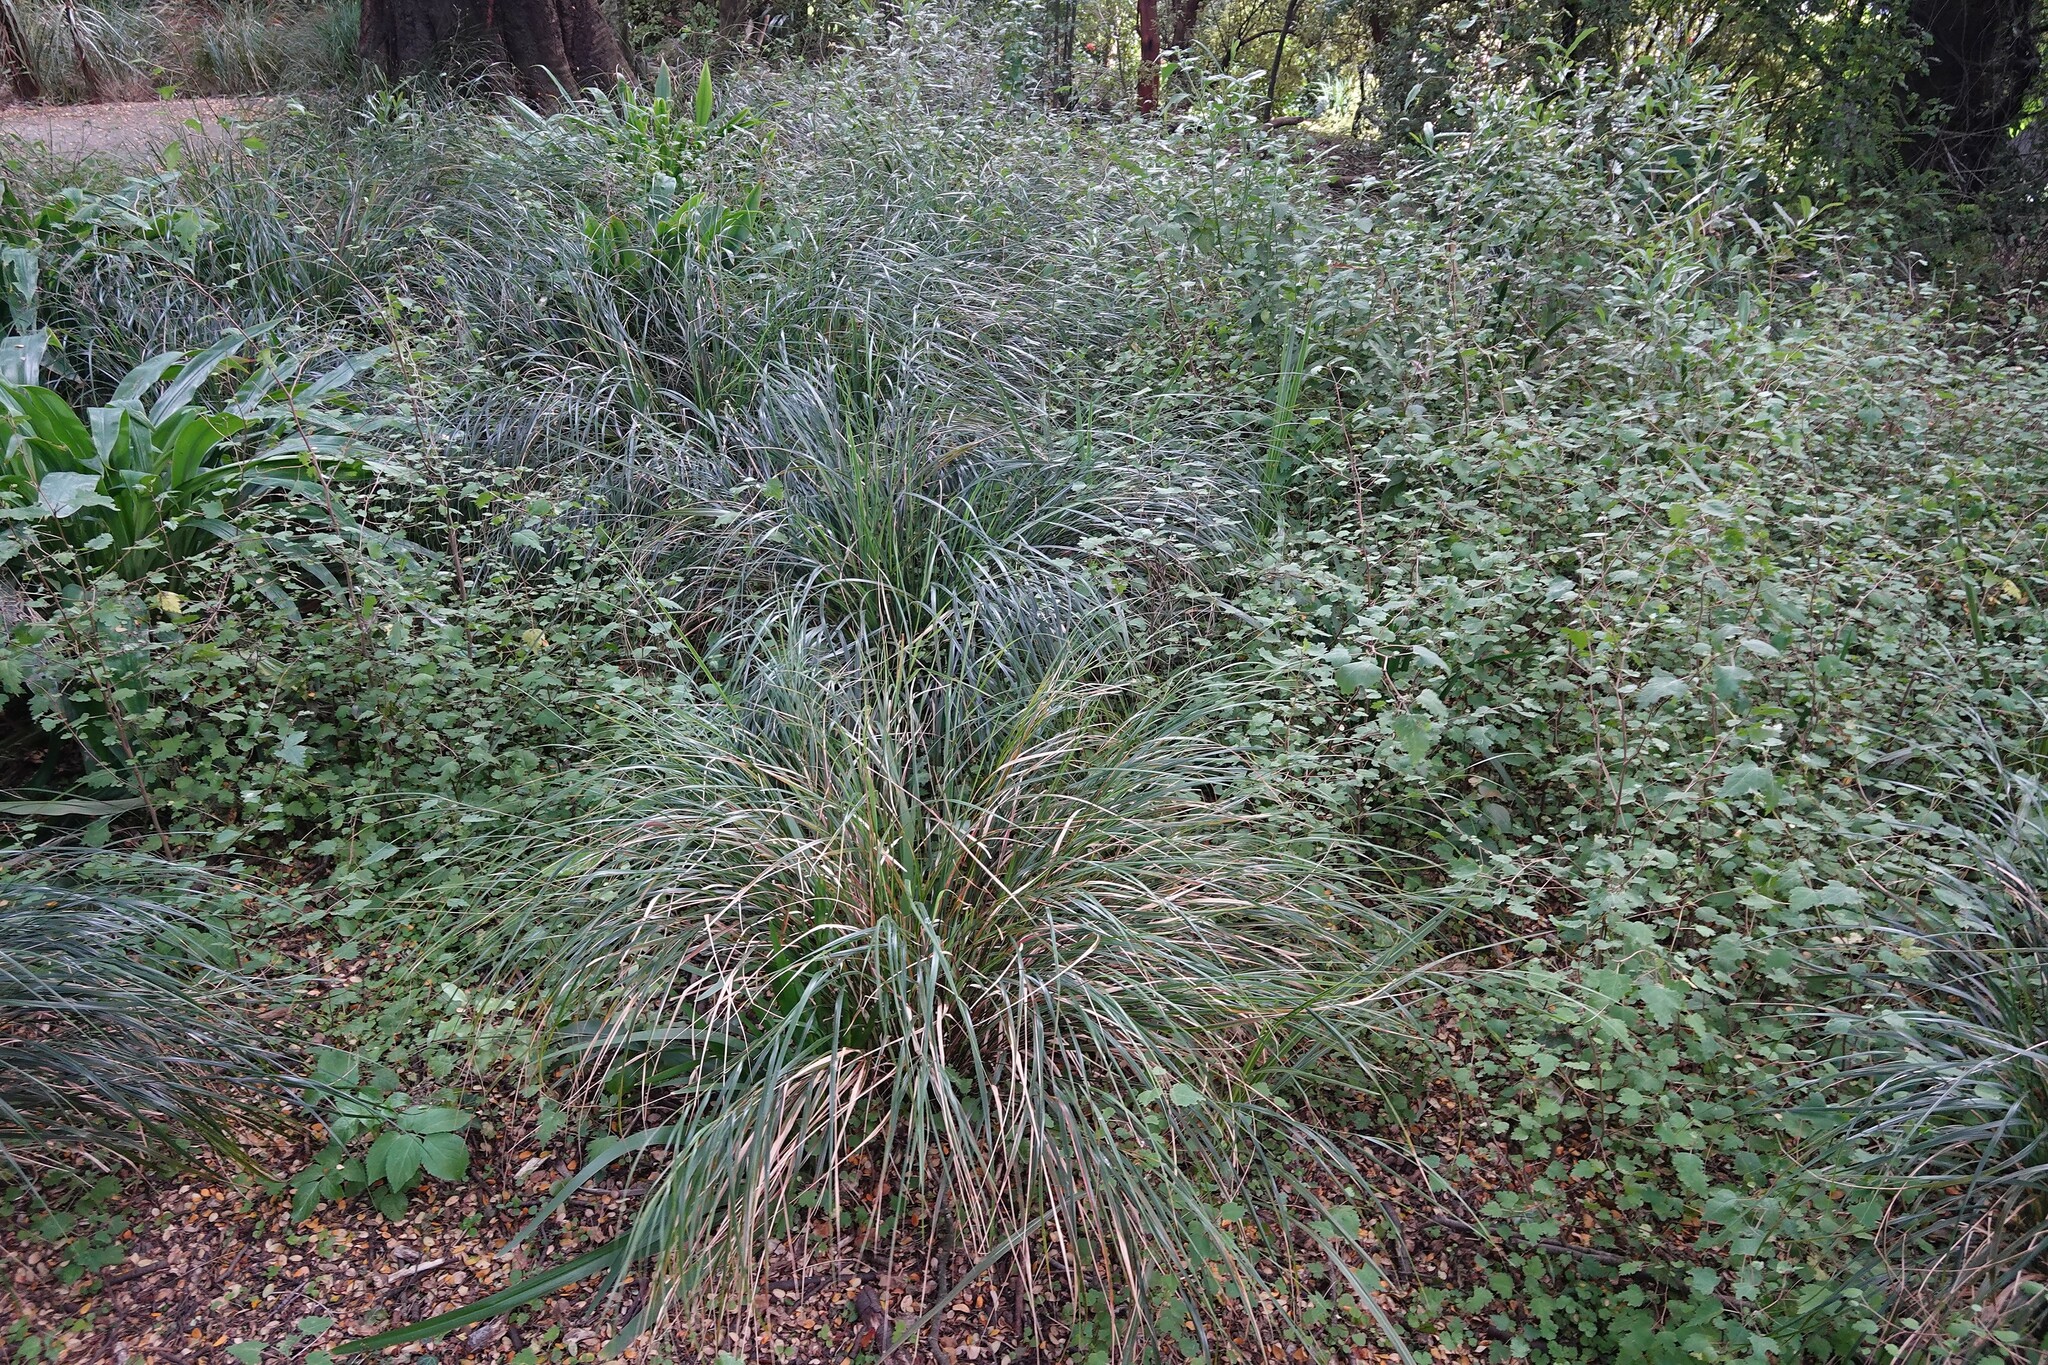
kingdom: Plantae
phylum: Tracheophyta
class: Liliopsida
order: Poales
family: Poaceae
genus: Anemanthele
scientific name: Anemanthele lessoniana
